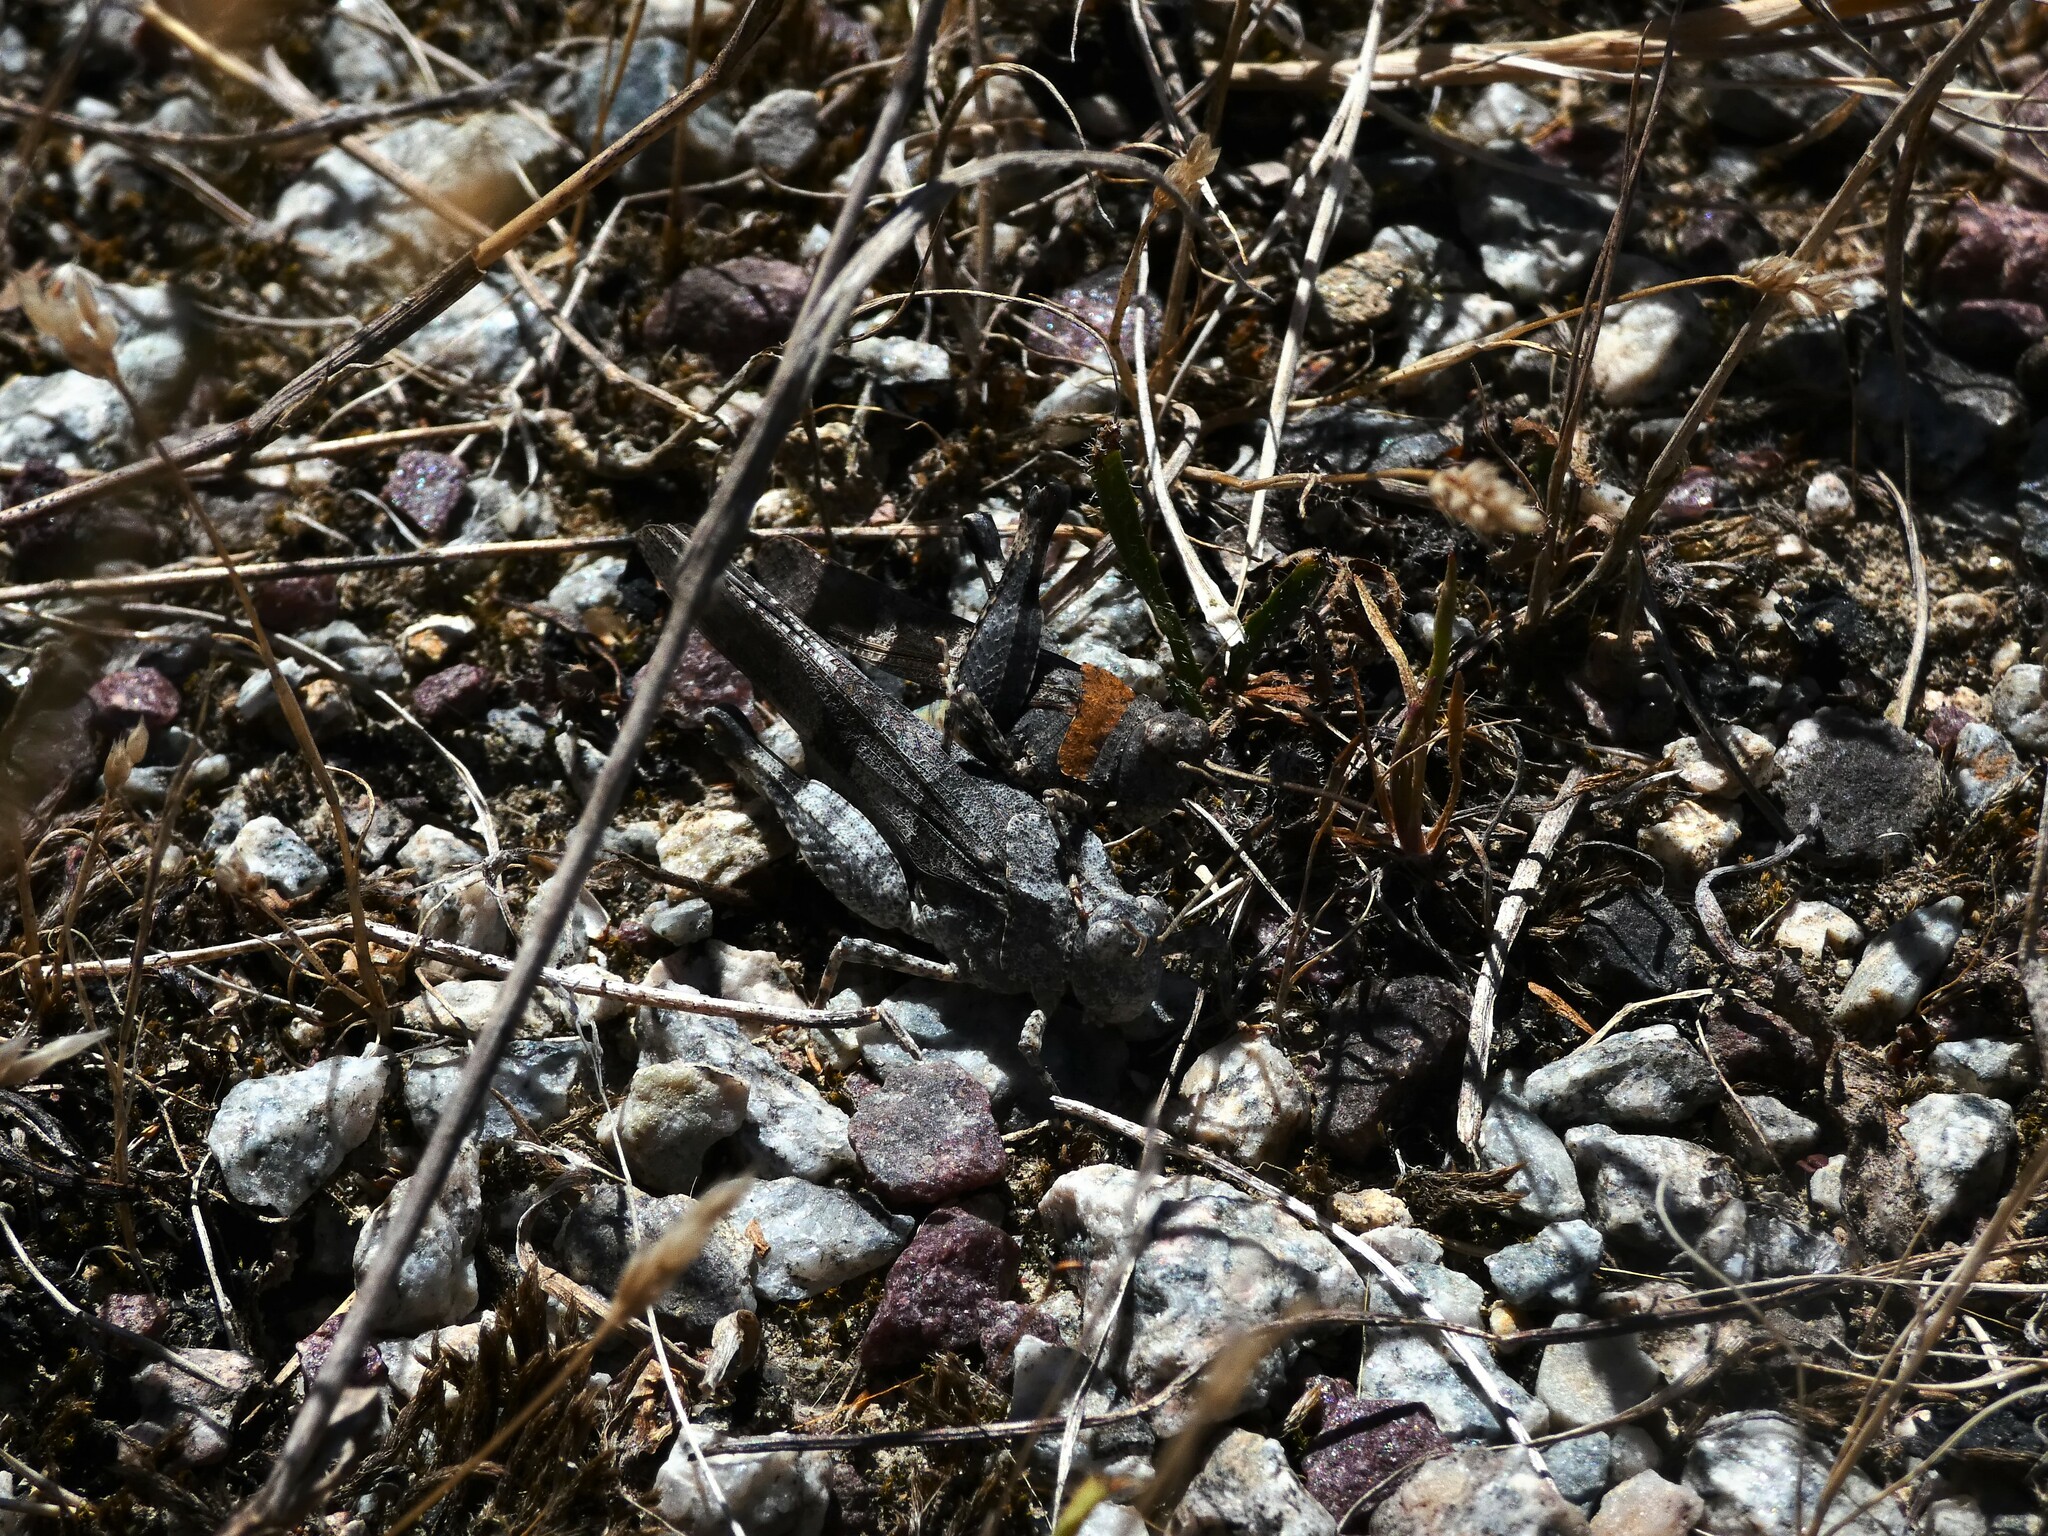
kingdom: Animalia
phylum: Arthropoda
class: Insecta
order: Orthoptera
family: Acrididae
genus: Oedipoda
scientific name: Oedipoda caerulescens
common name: Blue-winged grasshopper
